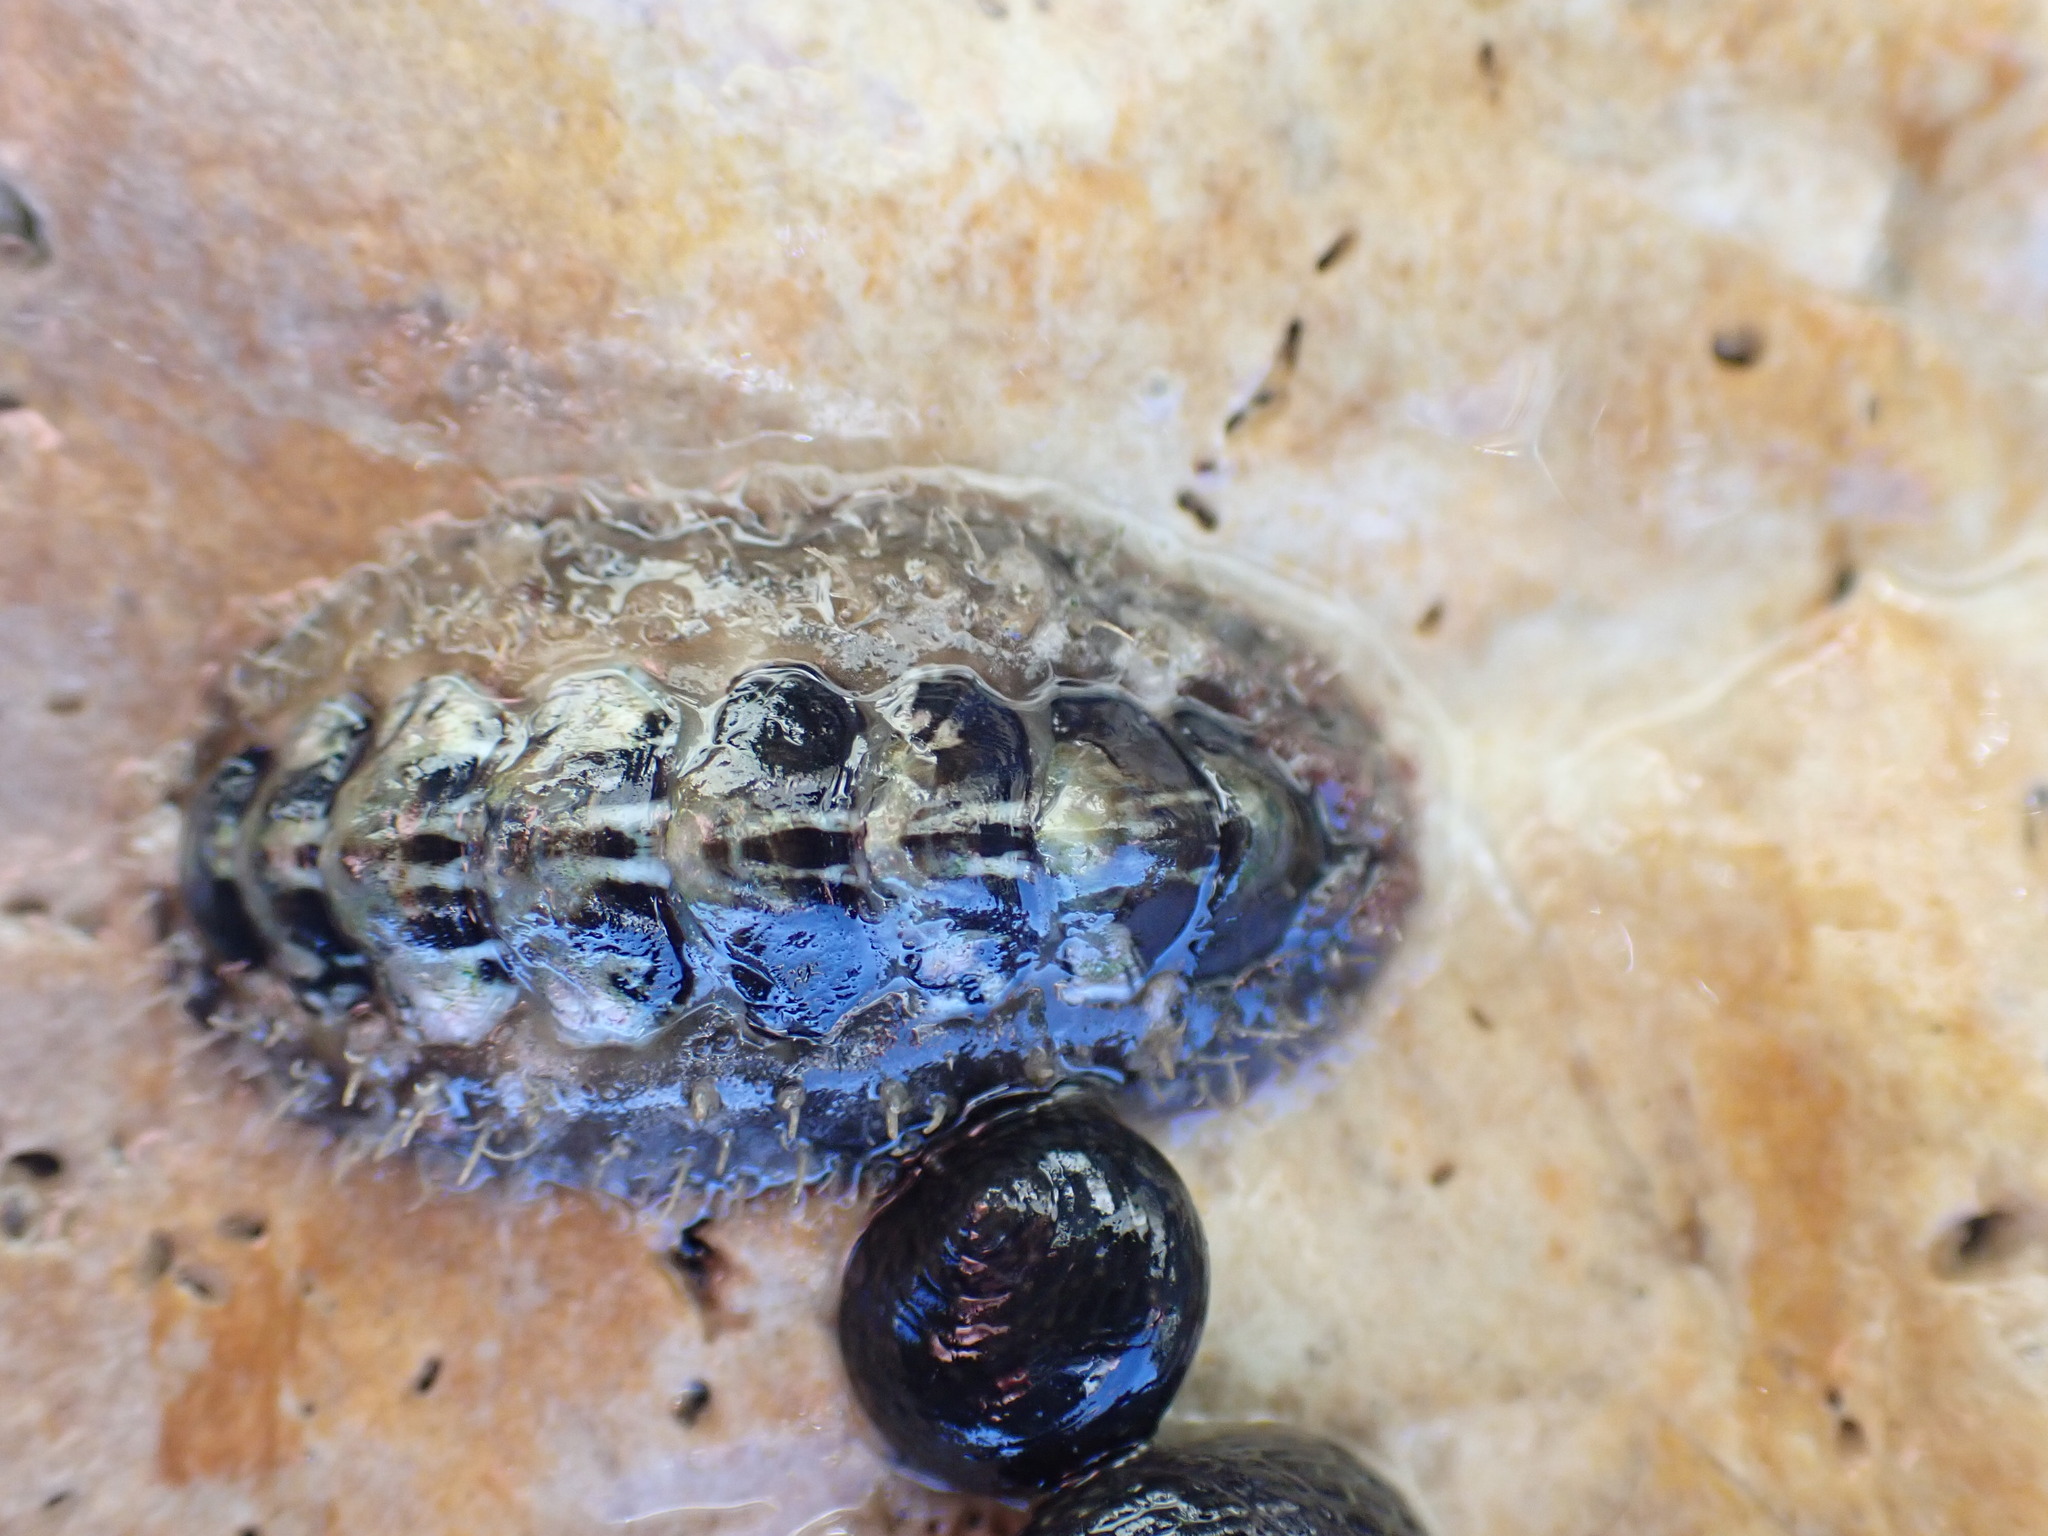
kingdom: Animalia
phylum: Mollusca
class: Polyplacophora
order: Chitonida
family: Mopaliidae
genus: Plaxiphora
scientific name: Plaxiphora caelata
